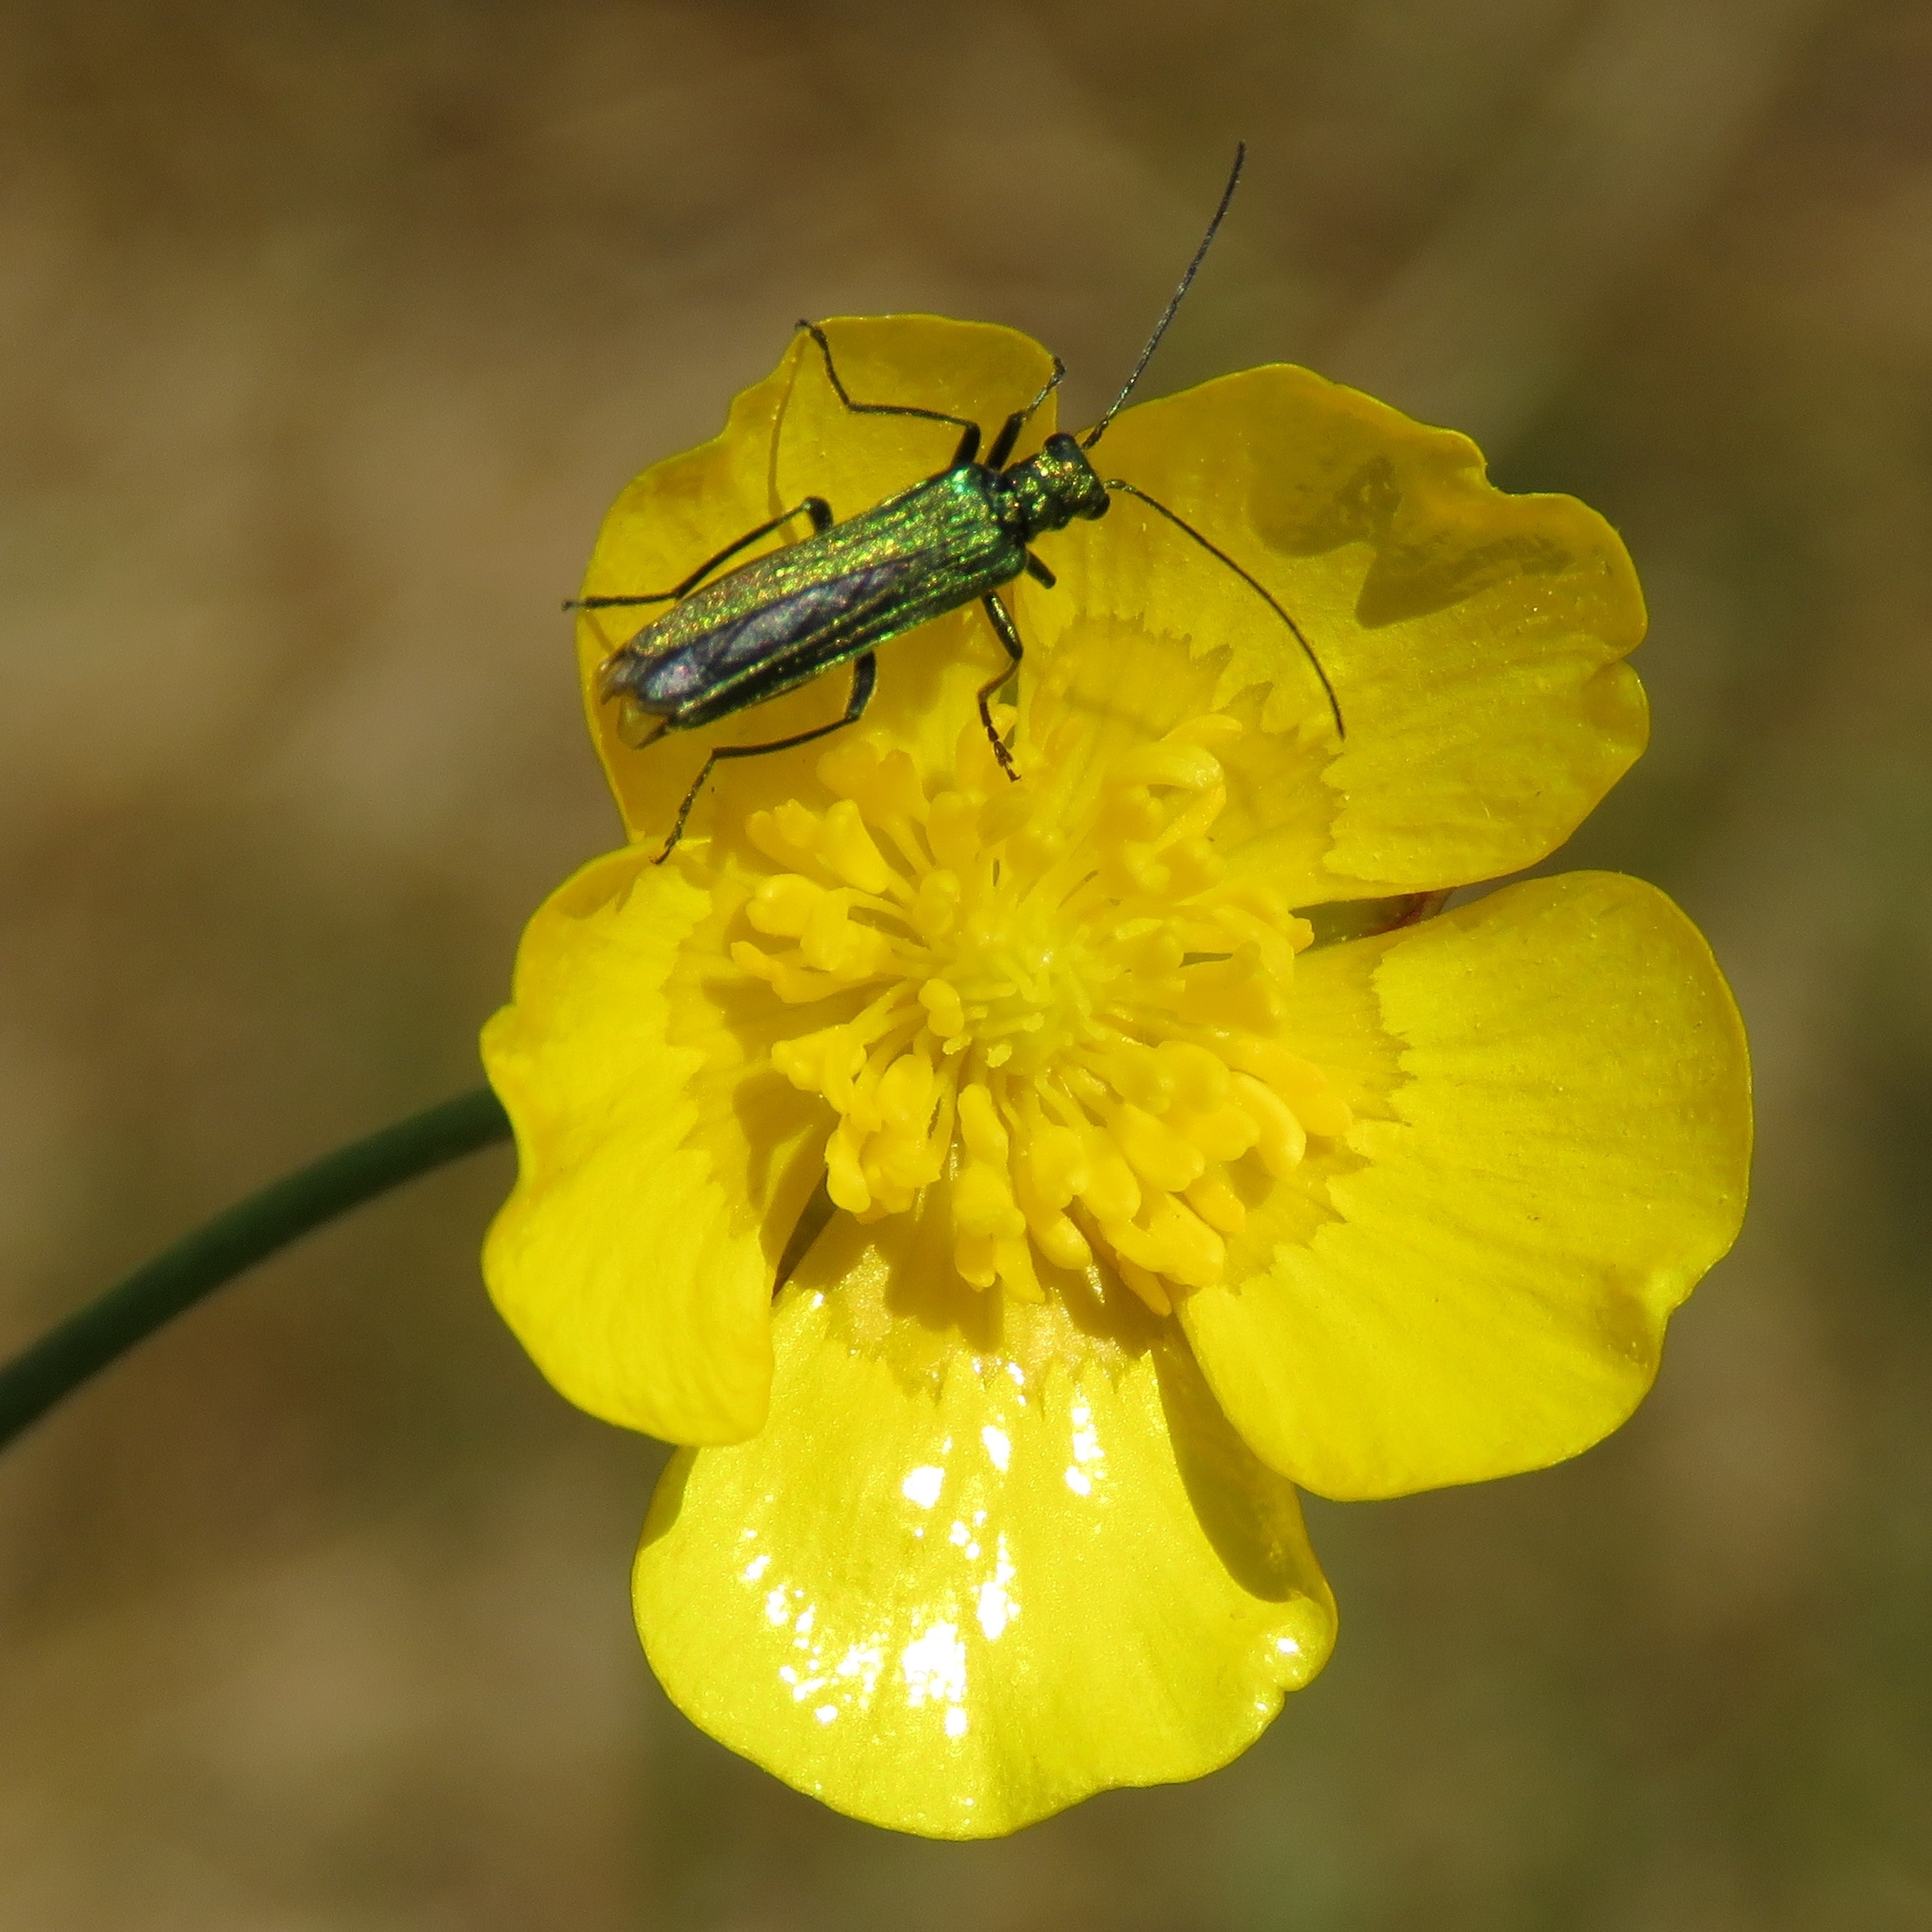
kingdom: Animalia
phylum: Arthropoda
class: Insecta
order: Coleoptera
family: Oedemeridae
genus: Oedemera
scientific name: Oedemera nobilis
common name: Swollen-thighed beetle
